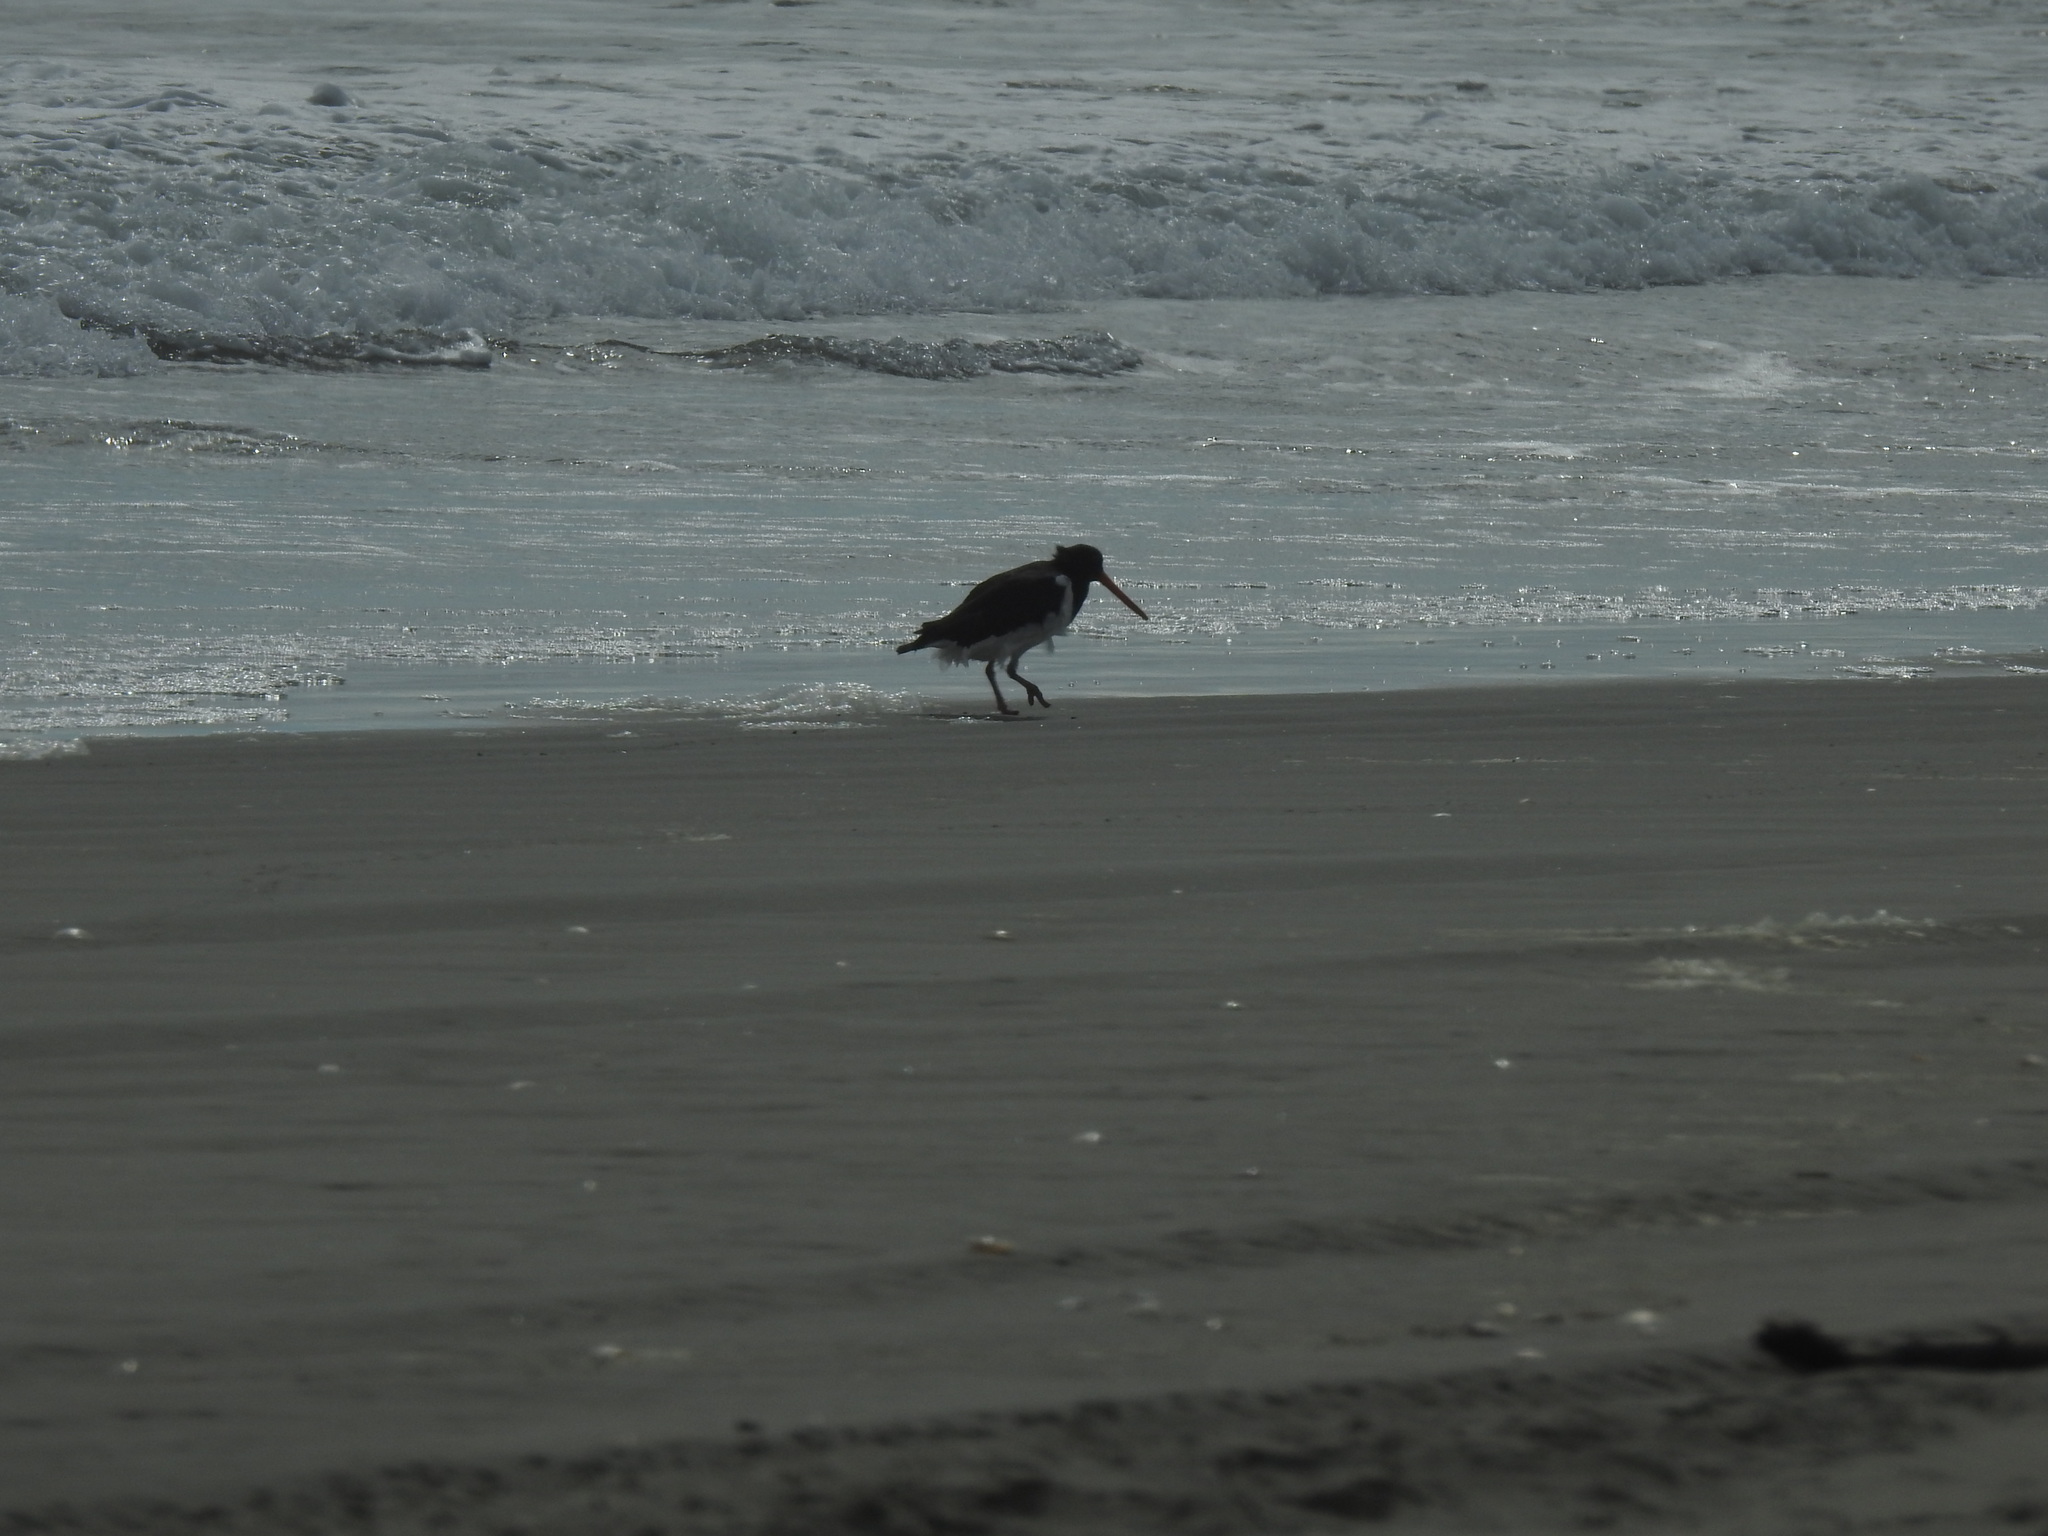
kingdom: Animalia
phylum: Chordata
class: Aves
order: Charadriiformes
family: Haematopodidae
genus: Haematopus
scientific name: Haematopus finschi
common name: South island oystercatcher
